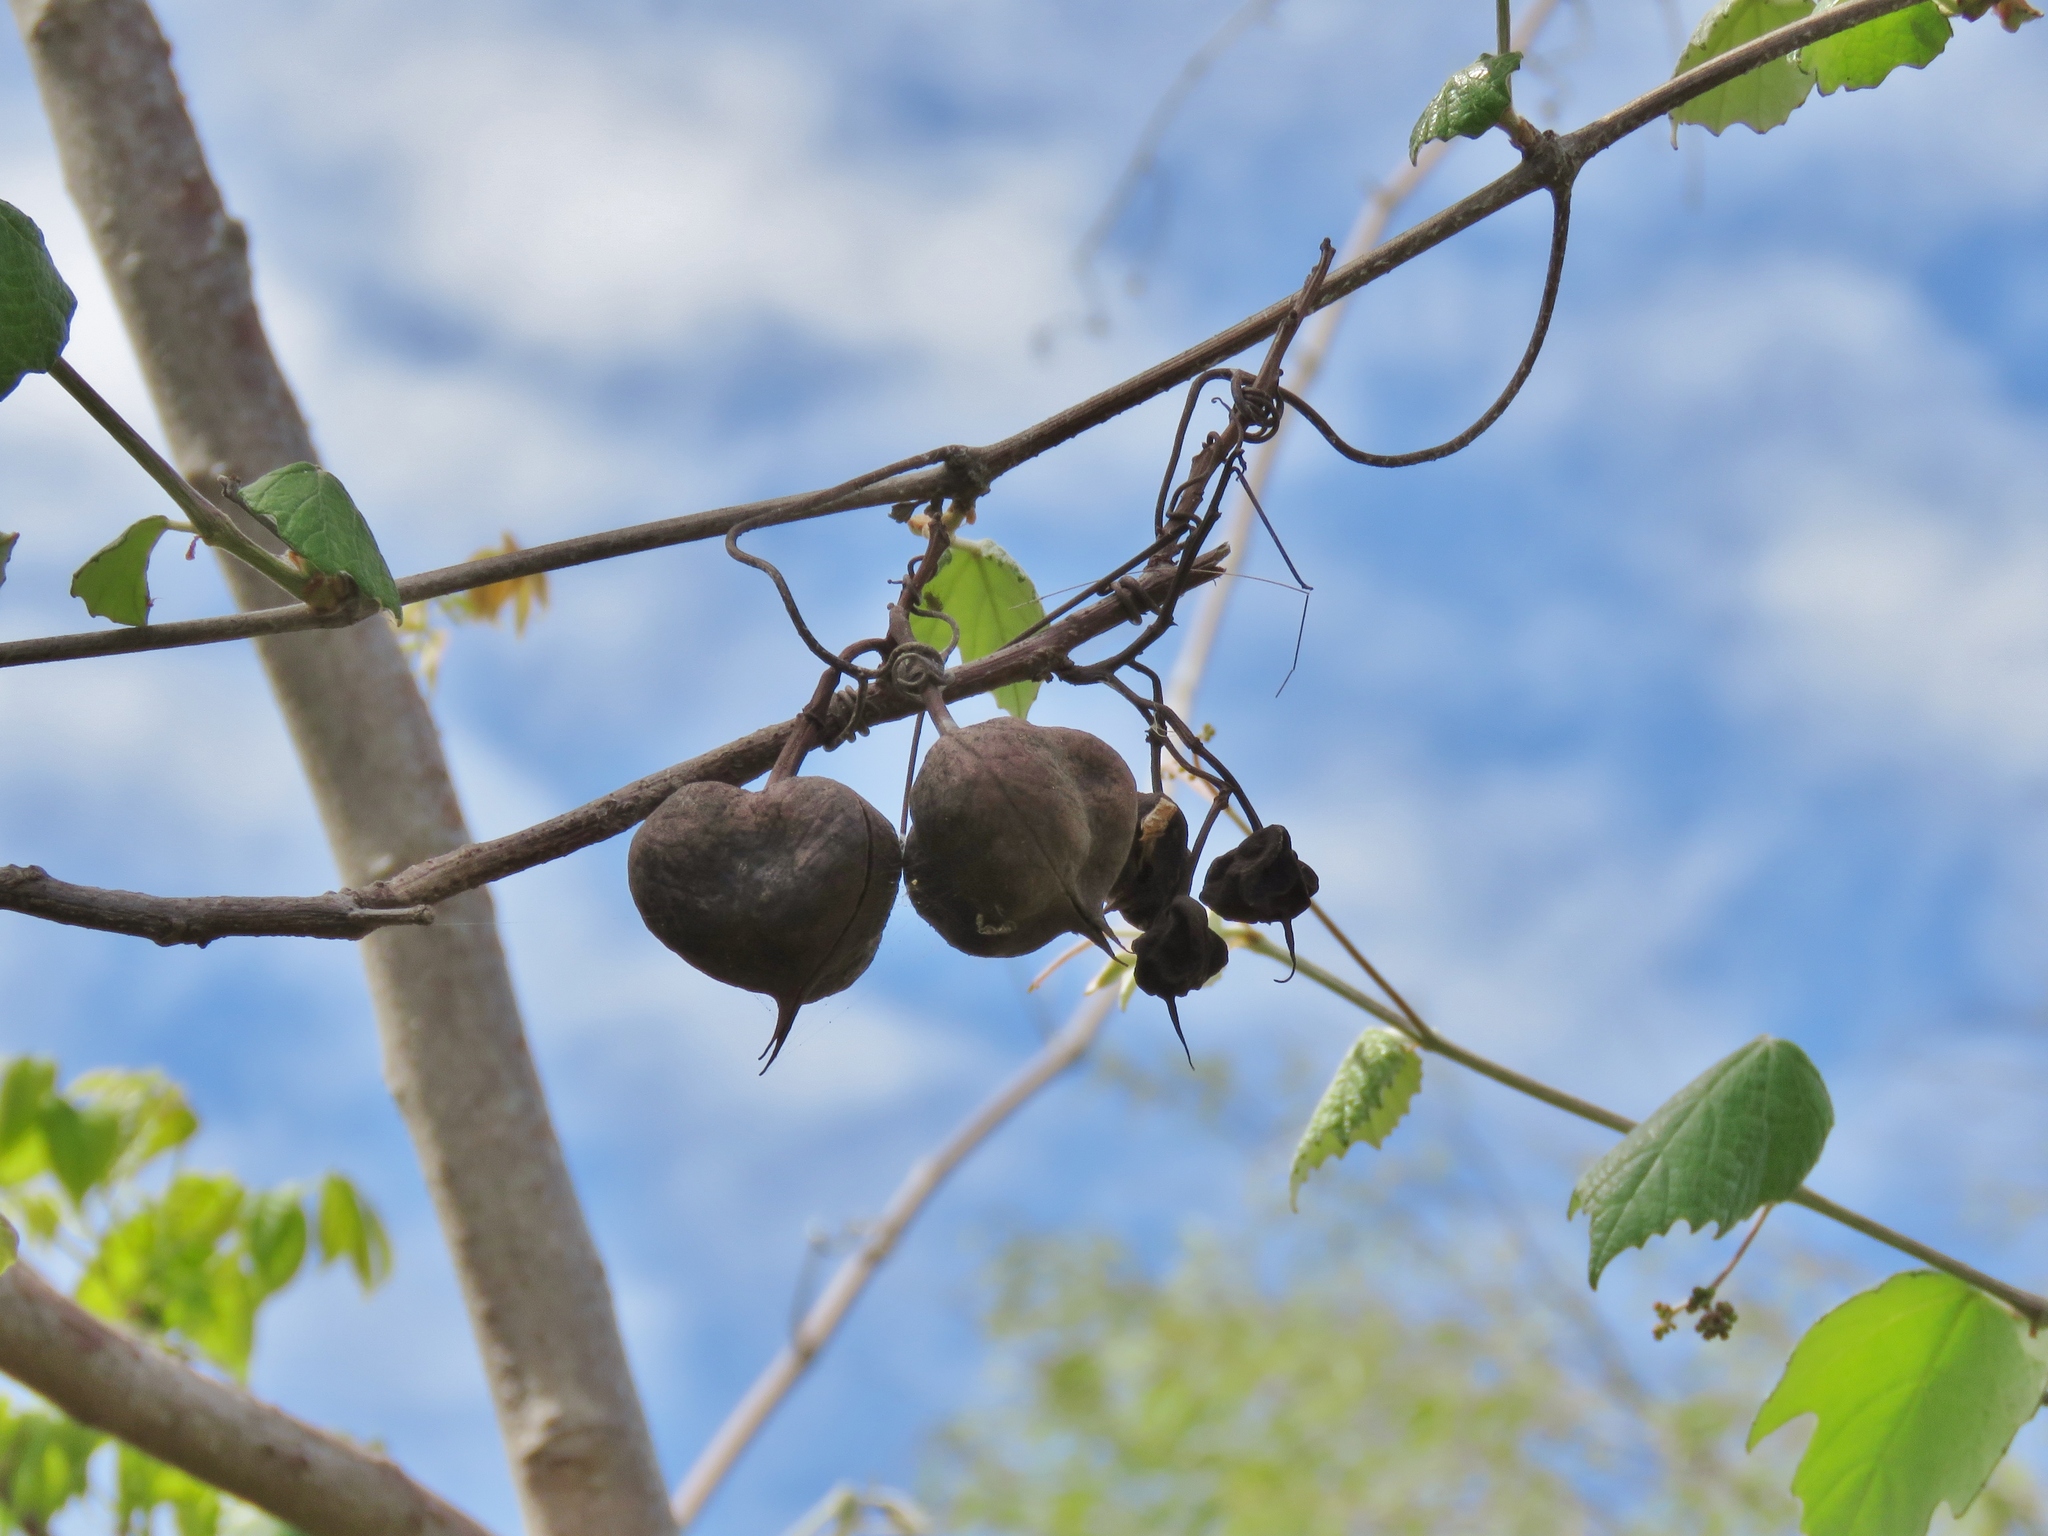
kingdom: Plantae
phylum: Tracheophyta
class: Magnoliopsida
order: Sapindales
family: Sapindaceae
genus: Ungnadia
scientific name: Ungnadia speciosa
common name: Texas-buckeye
